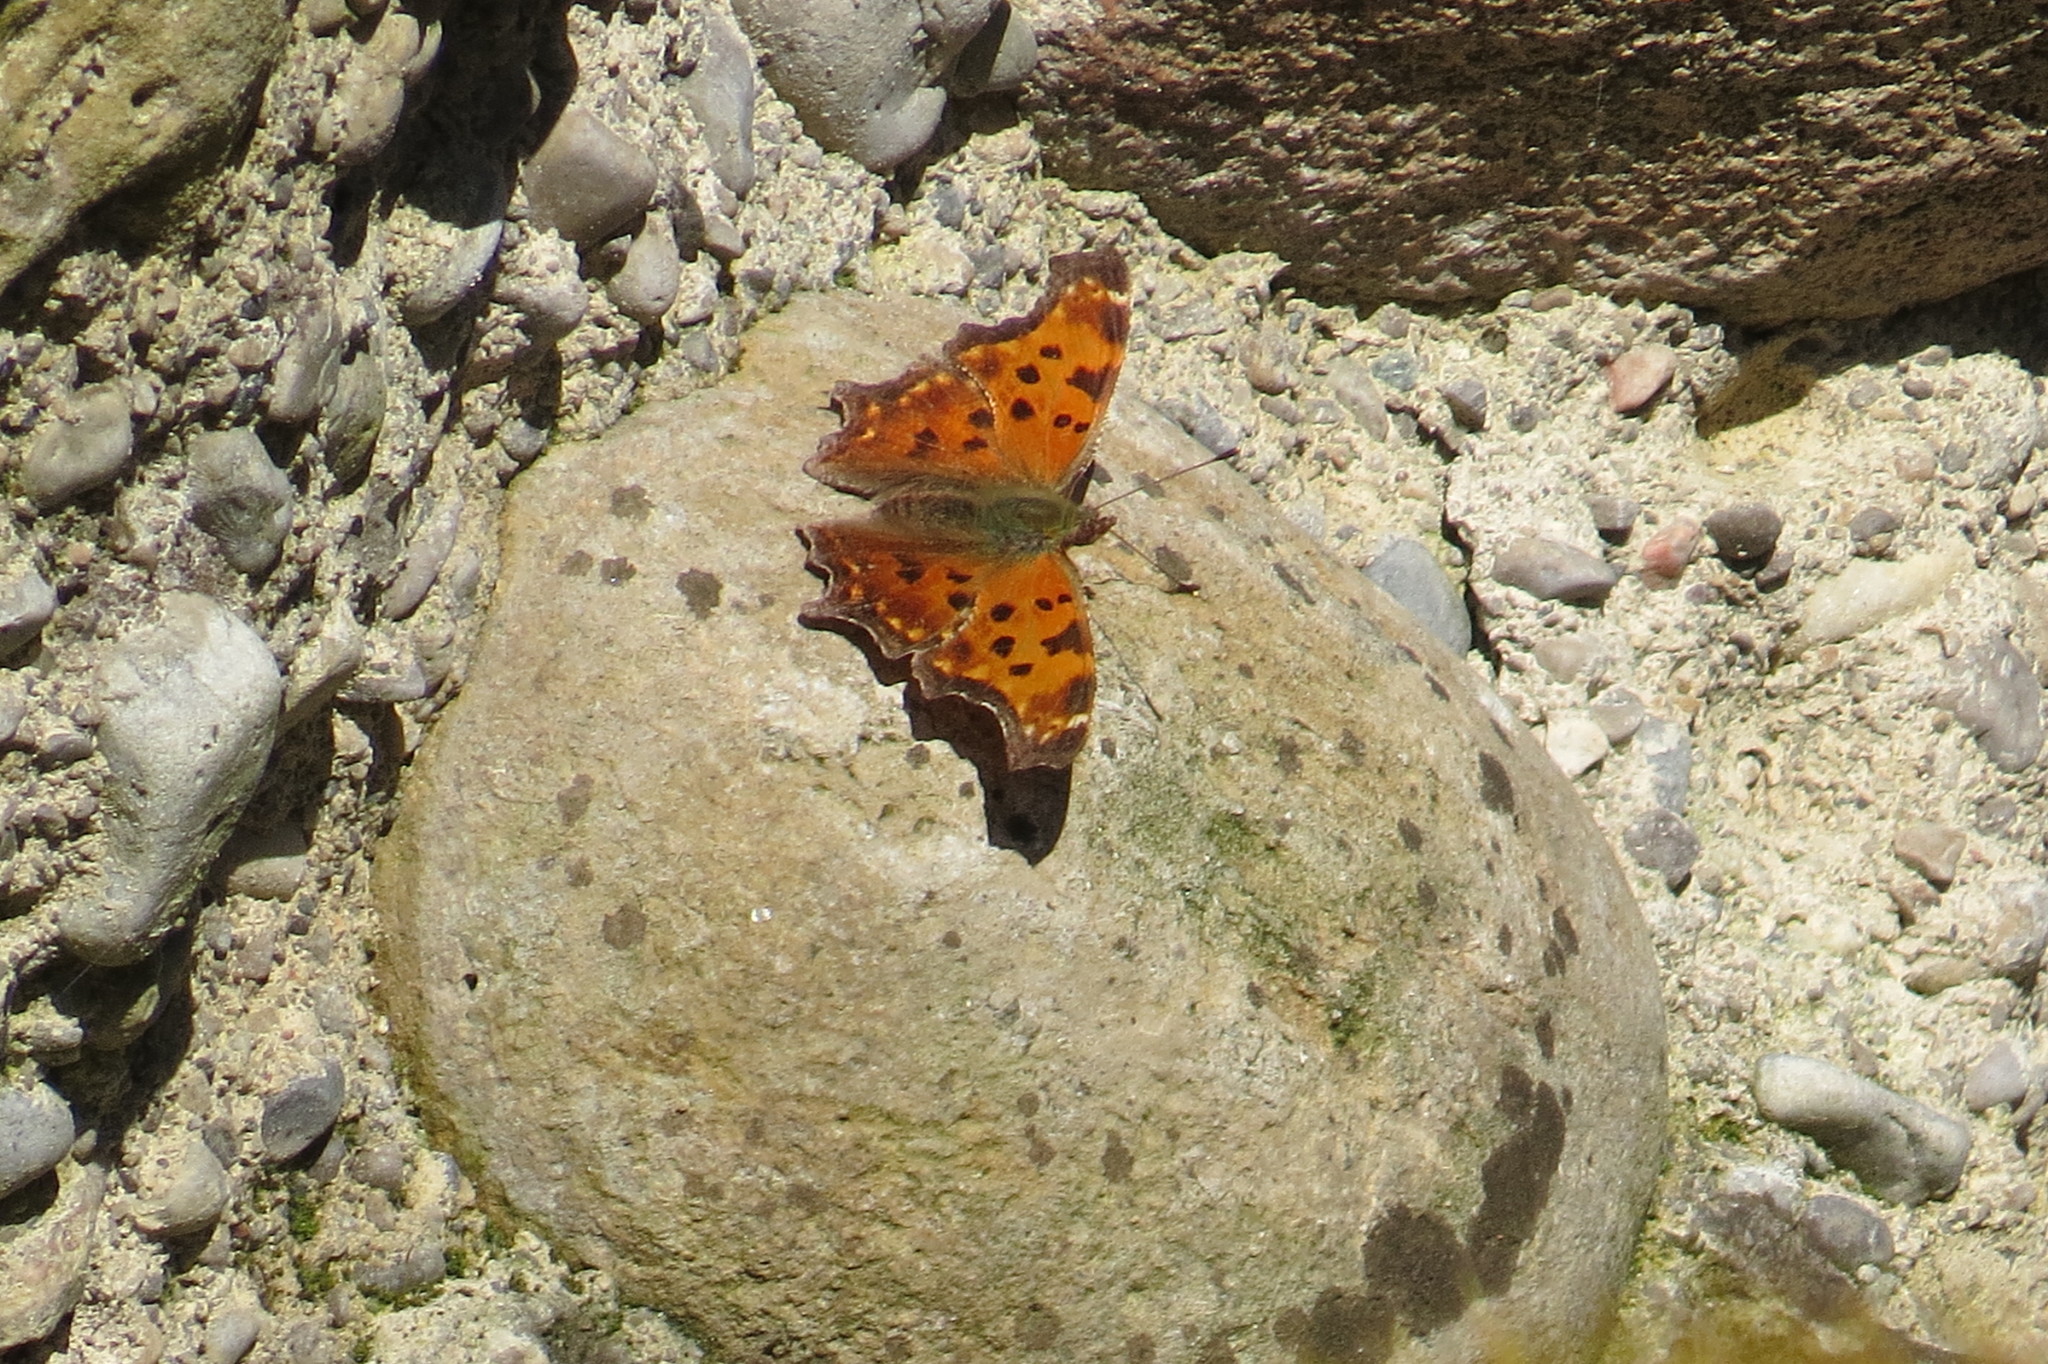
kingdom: Animalia
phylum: Arthropoda
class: Insecta
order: Lepidoptera
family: Nymphalidae
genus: Polygonia
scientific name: Polygonia comma
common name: Eastern comma
